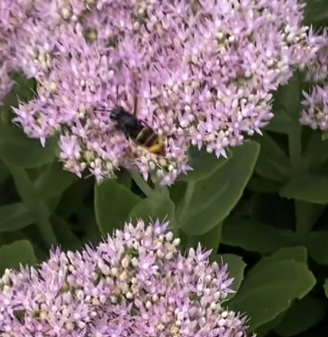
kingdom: Animalia
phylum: Arthropoda
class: Insecta
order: Hymenoptera
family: Vespidae
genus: Vespa
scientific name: Vespa velutina
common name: Asian hornet
